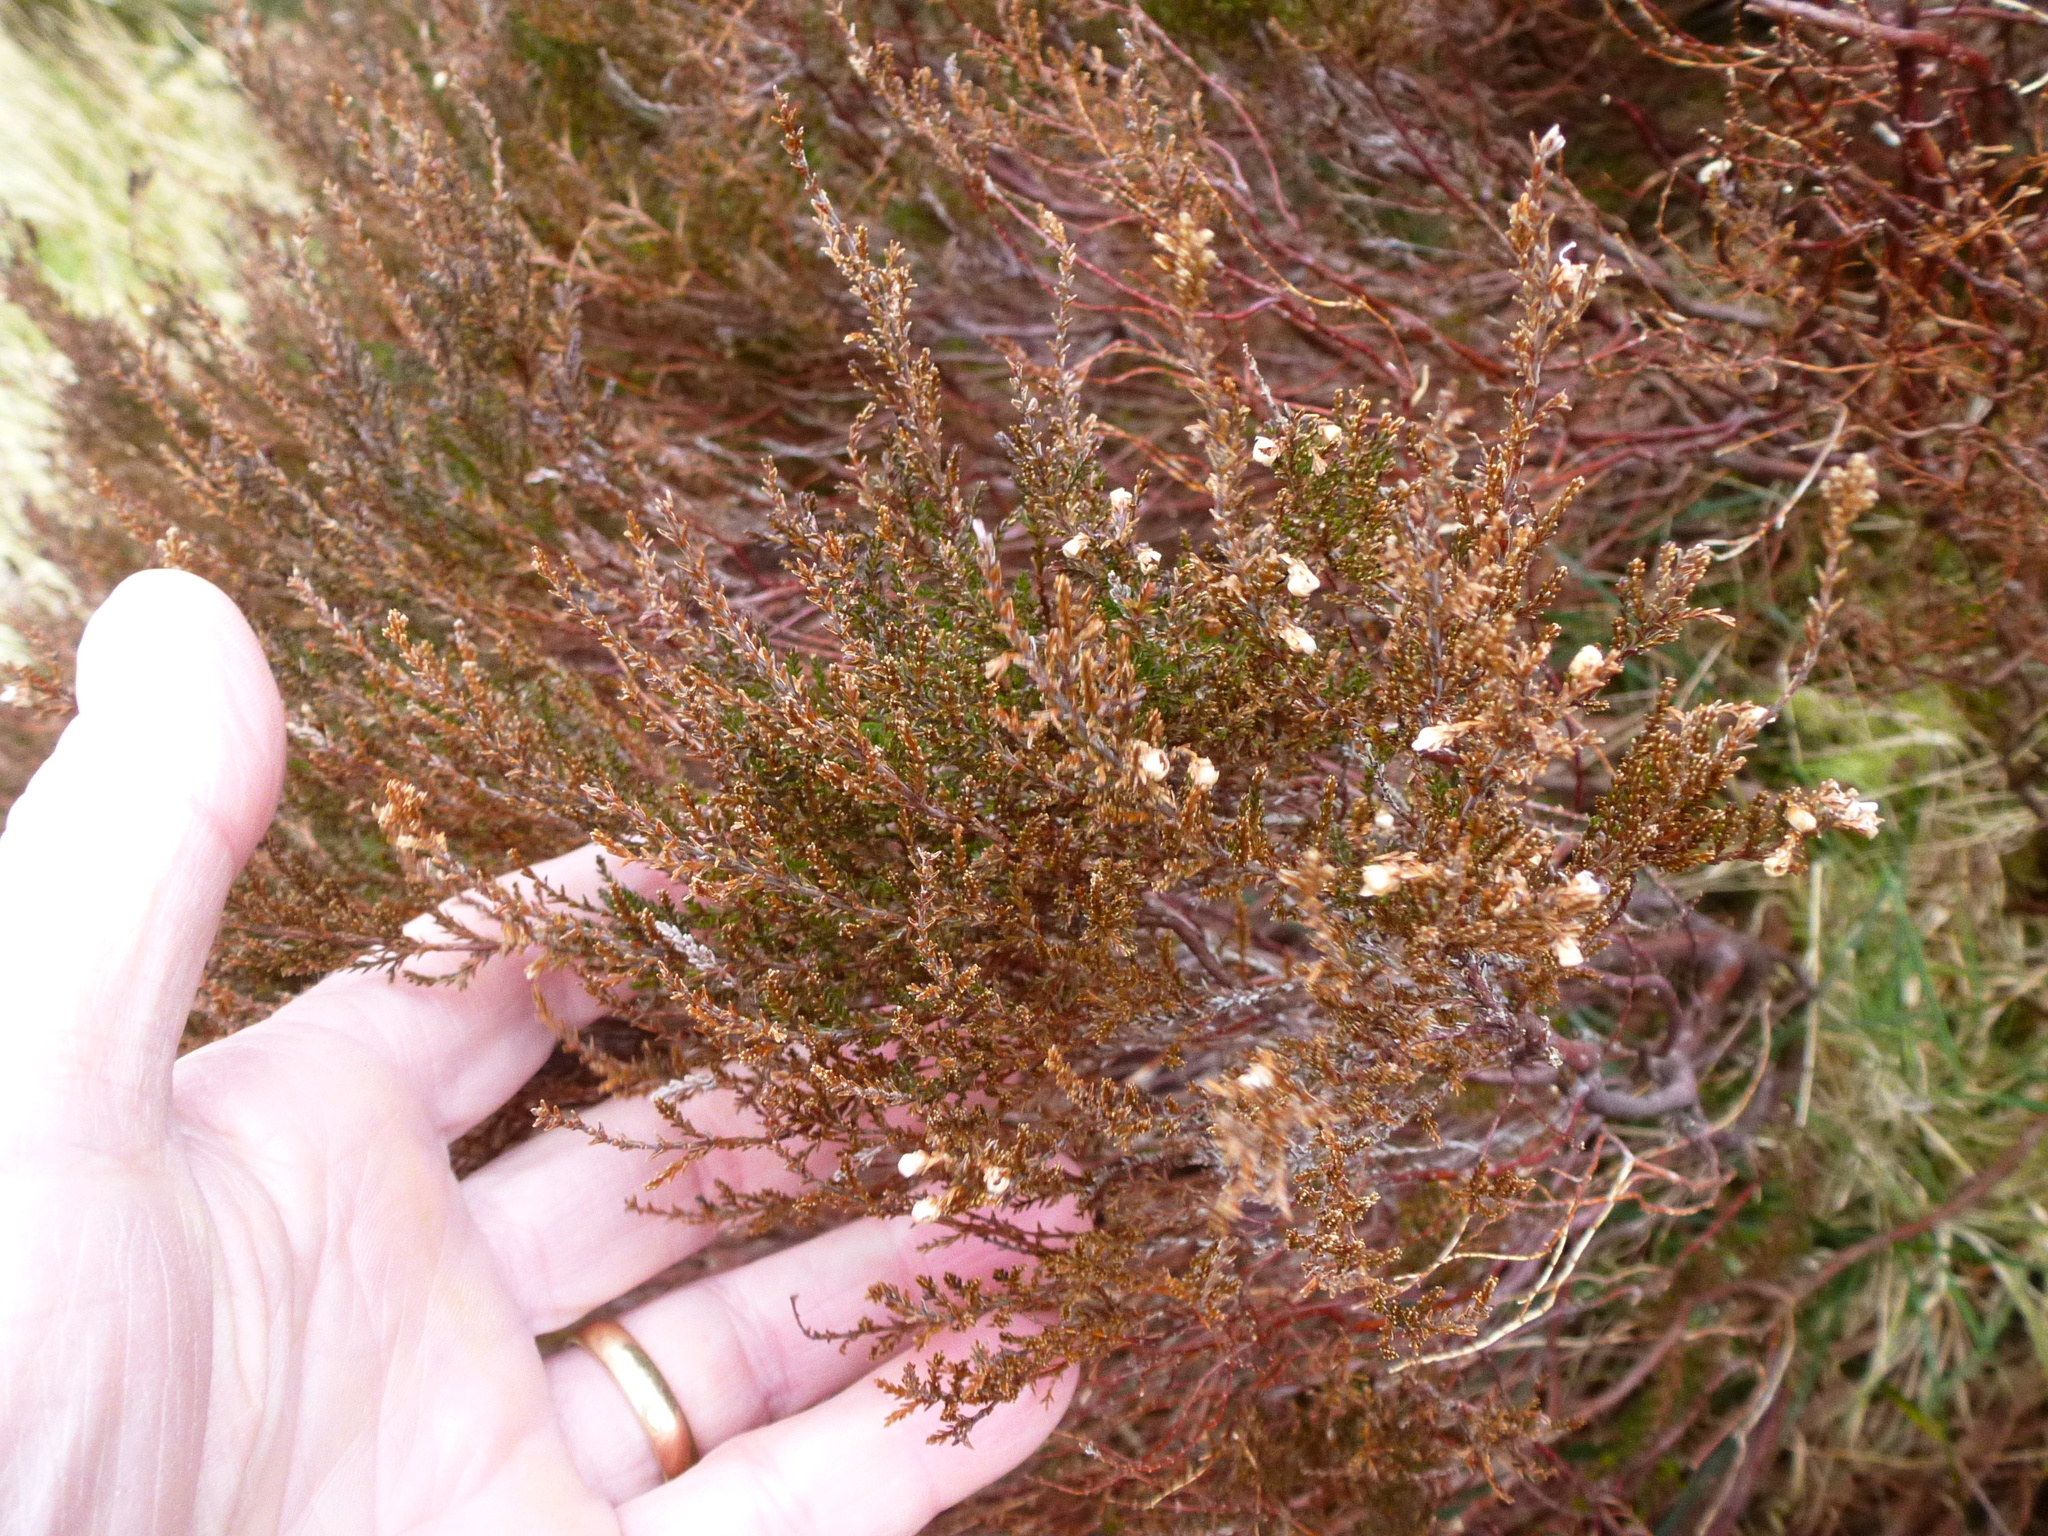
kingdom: Plantae
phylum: Tracheophyta
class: Magnoliopsida
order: Ericales
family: Ericaceae
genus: Calluna
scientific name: Calluna vulgaris
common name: Heather
